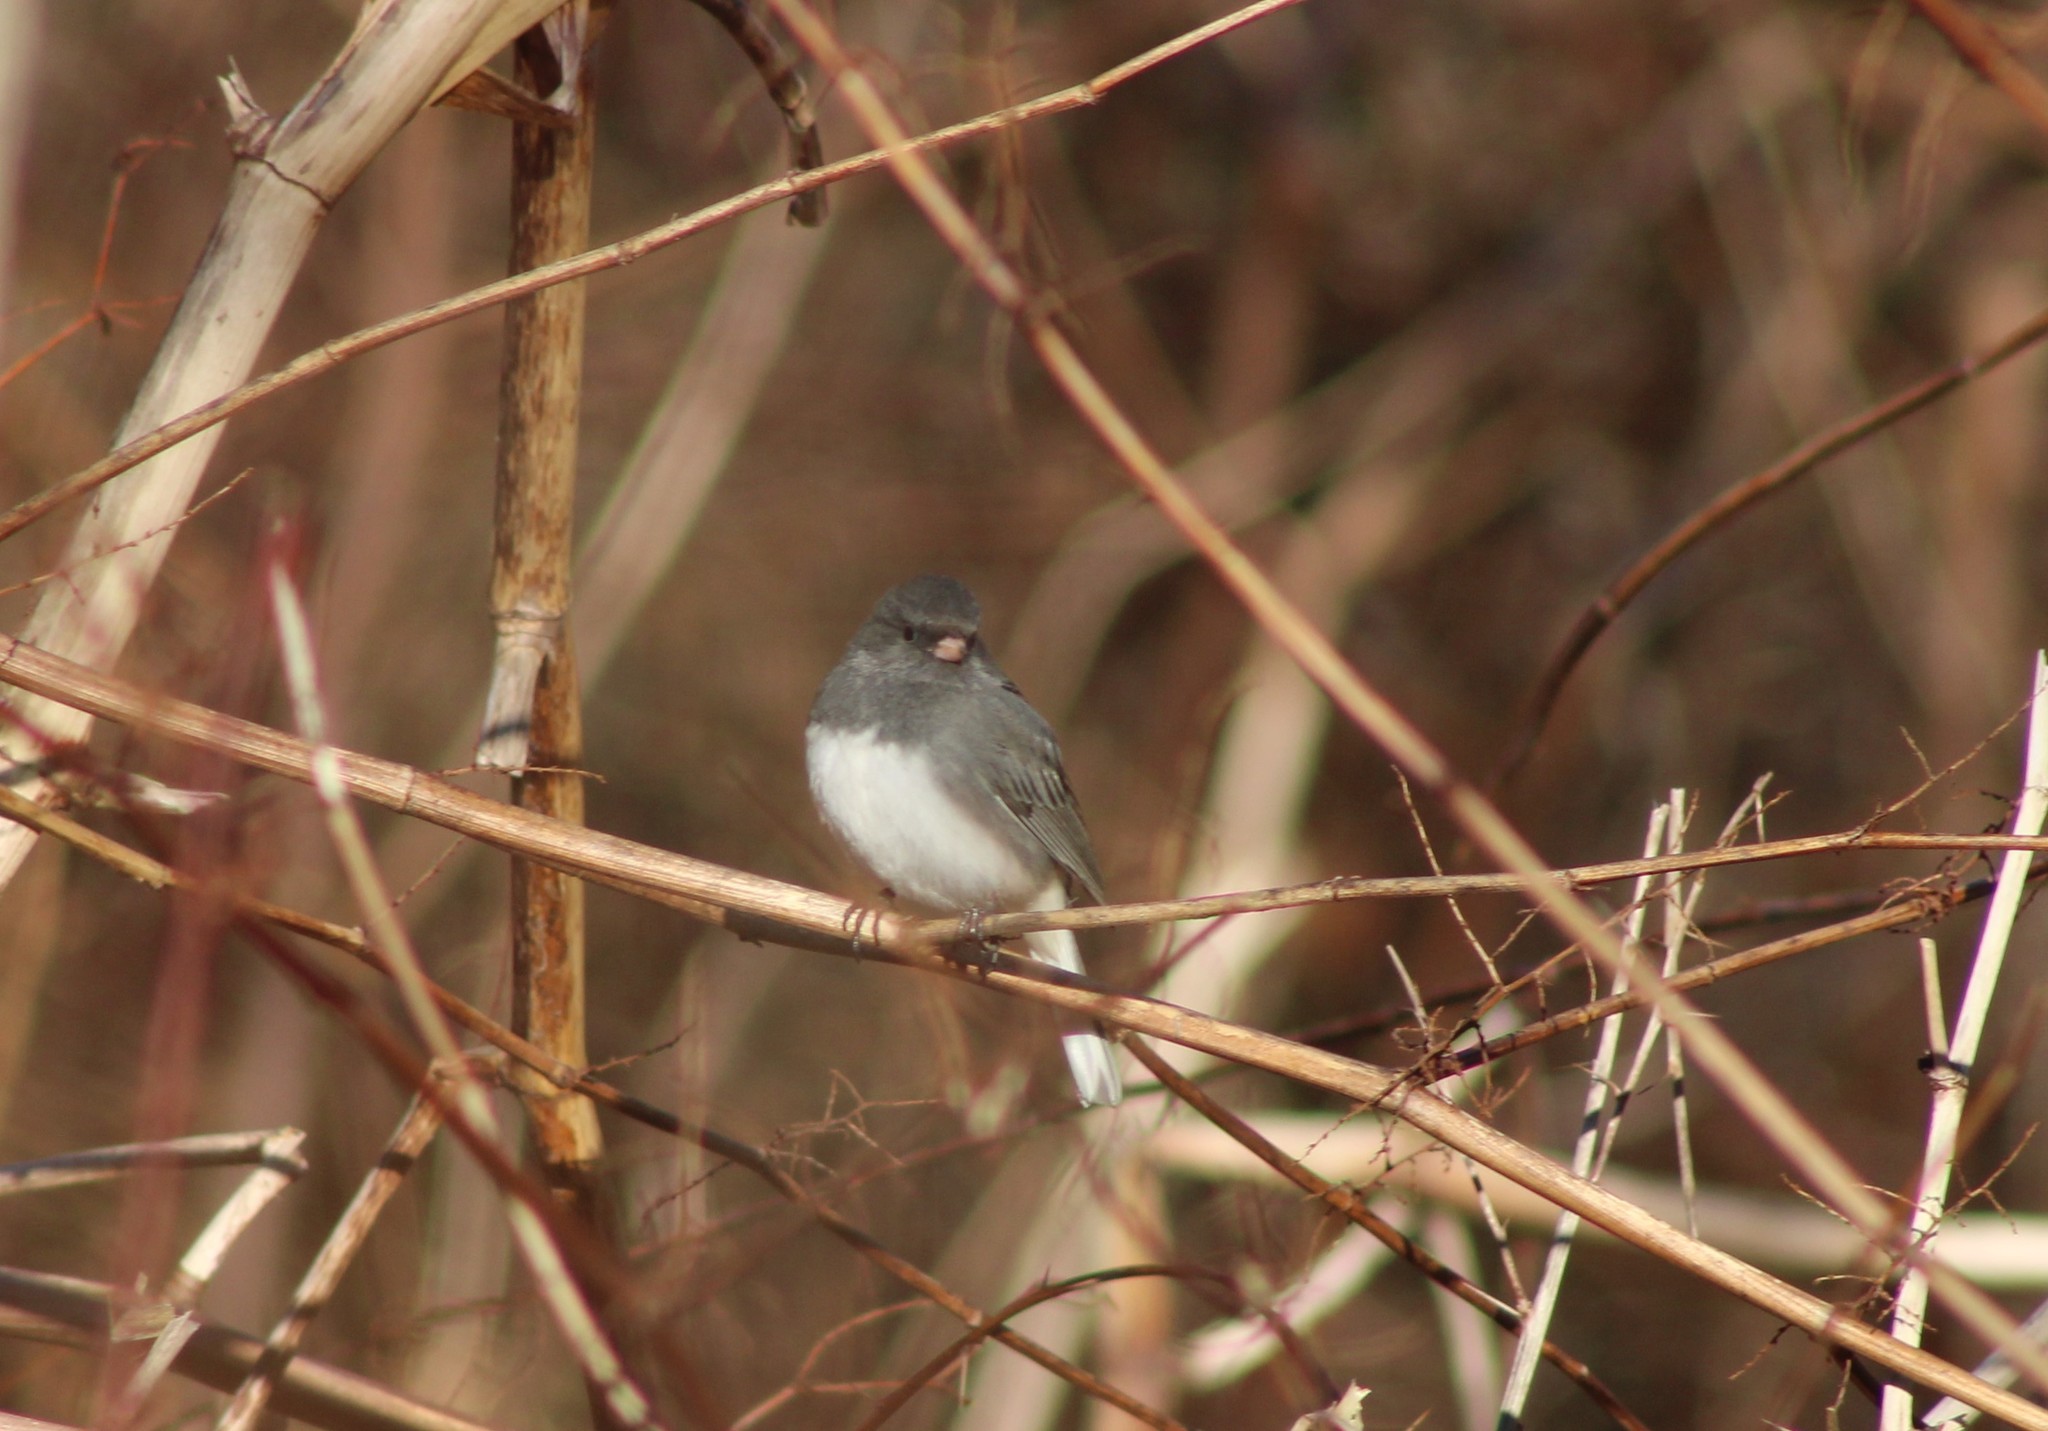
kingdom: Animalia
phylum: Chordata
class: Aves
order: Passeriformes
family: Passerellidae
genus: Junco
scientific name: Junco hyemalis
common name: Dark-eyed junco
